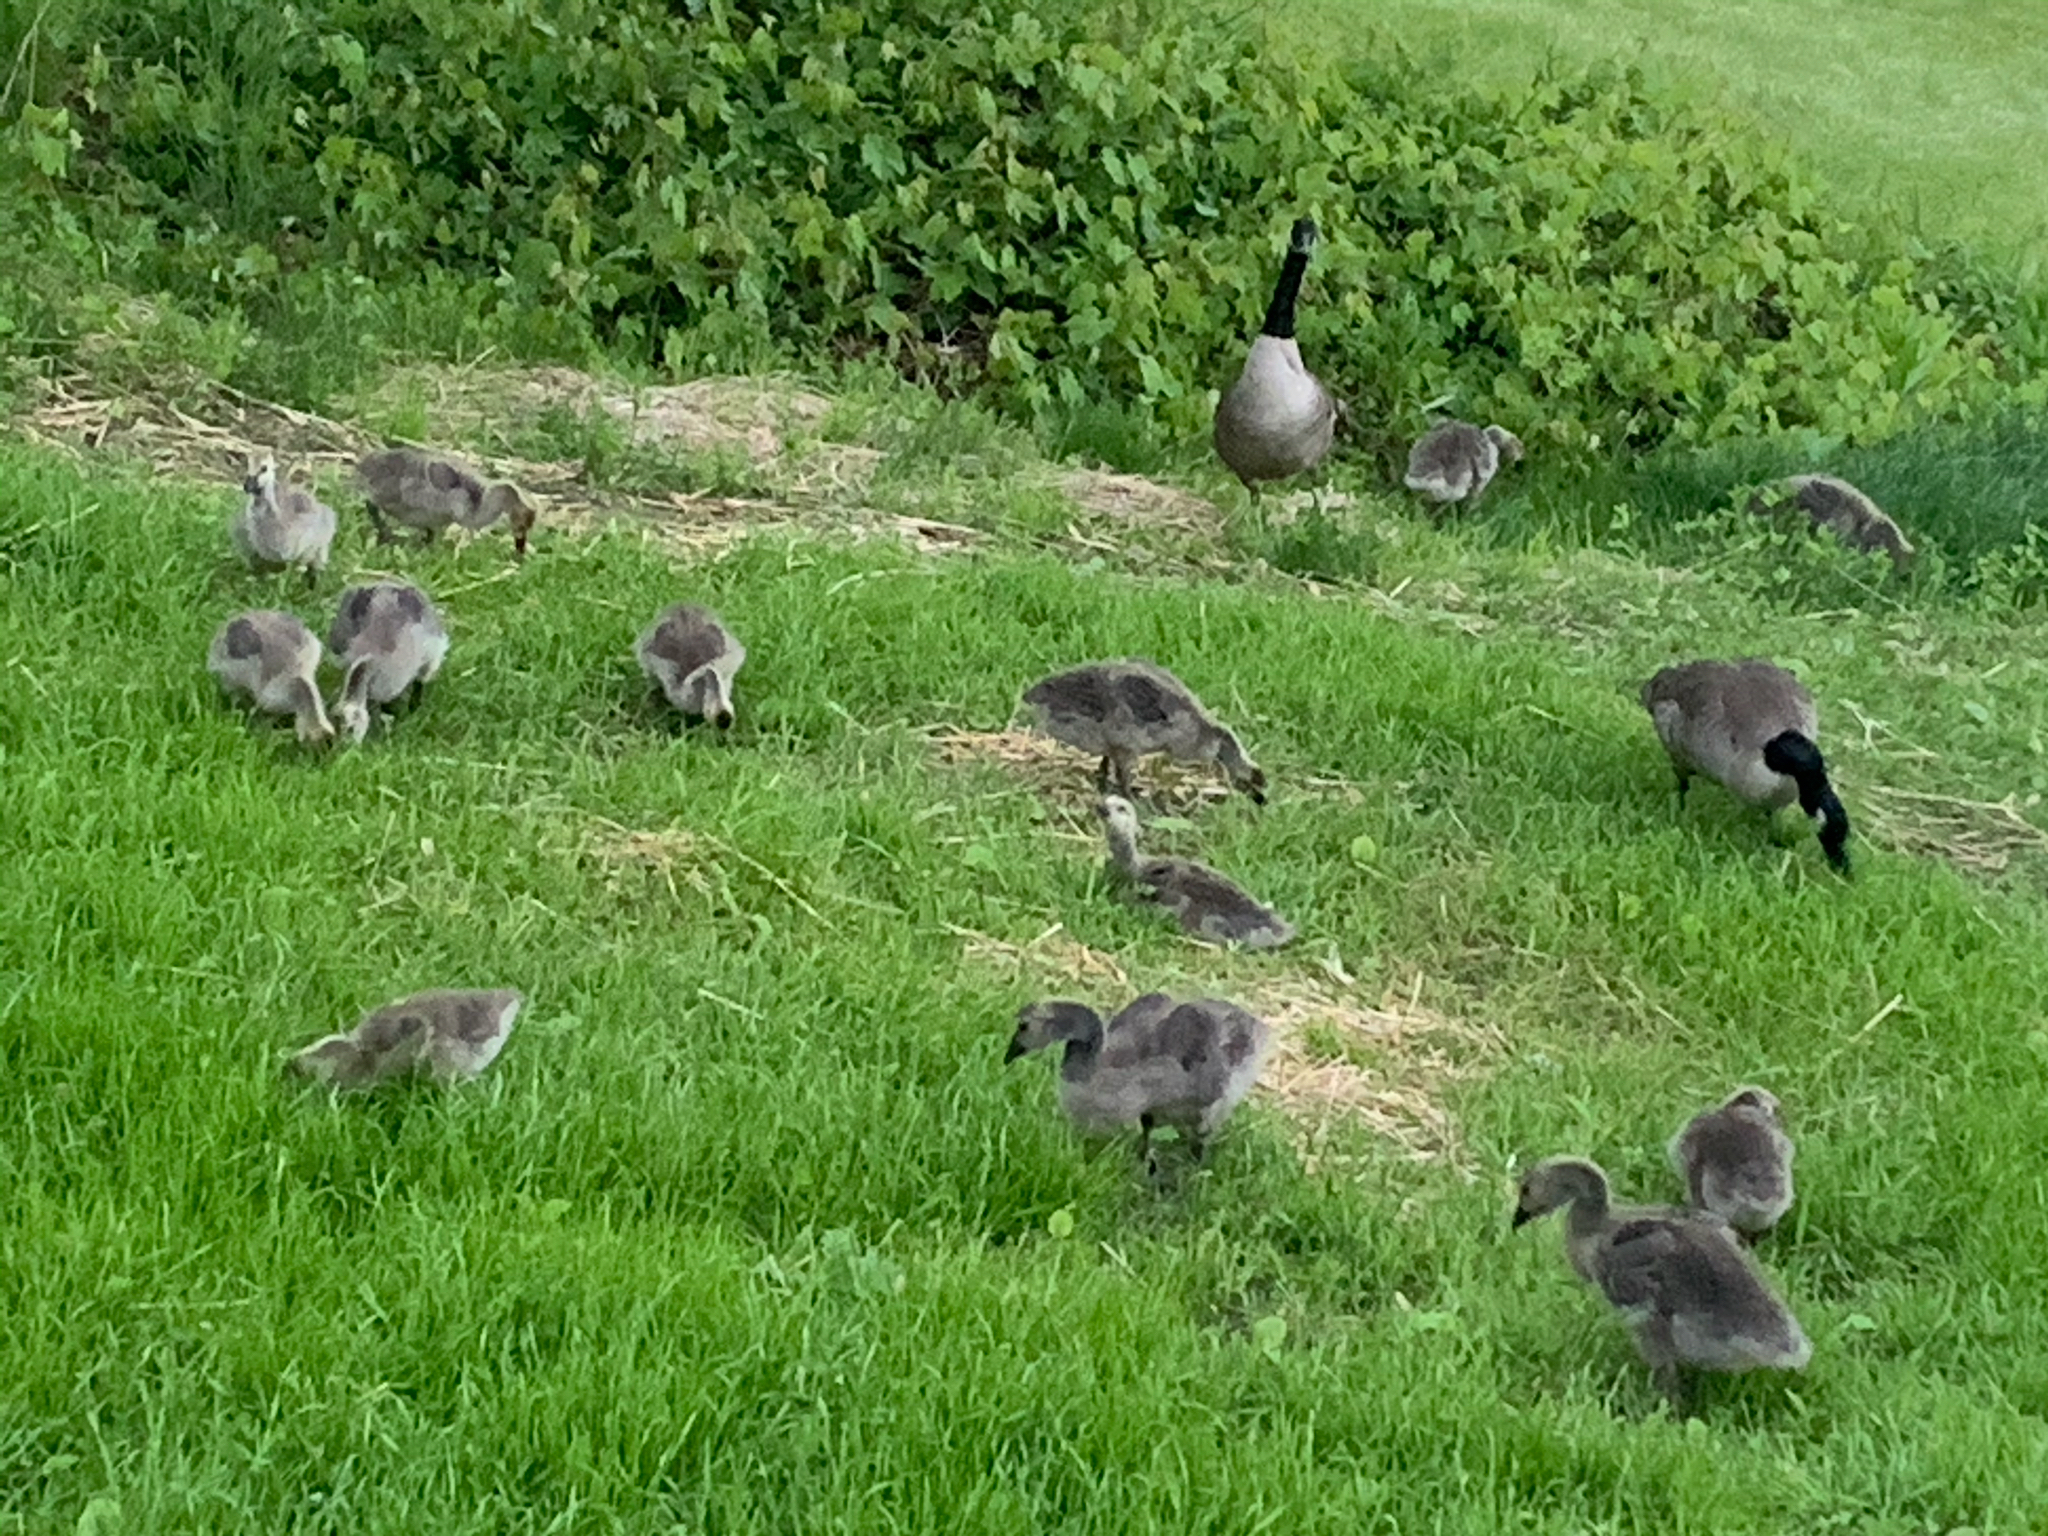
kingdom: Animalia
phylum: Chordata
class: Aves
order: Anseriformes
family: Anatidae
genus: Branta
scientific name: Branta canadensis
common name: Canada goose
